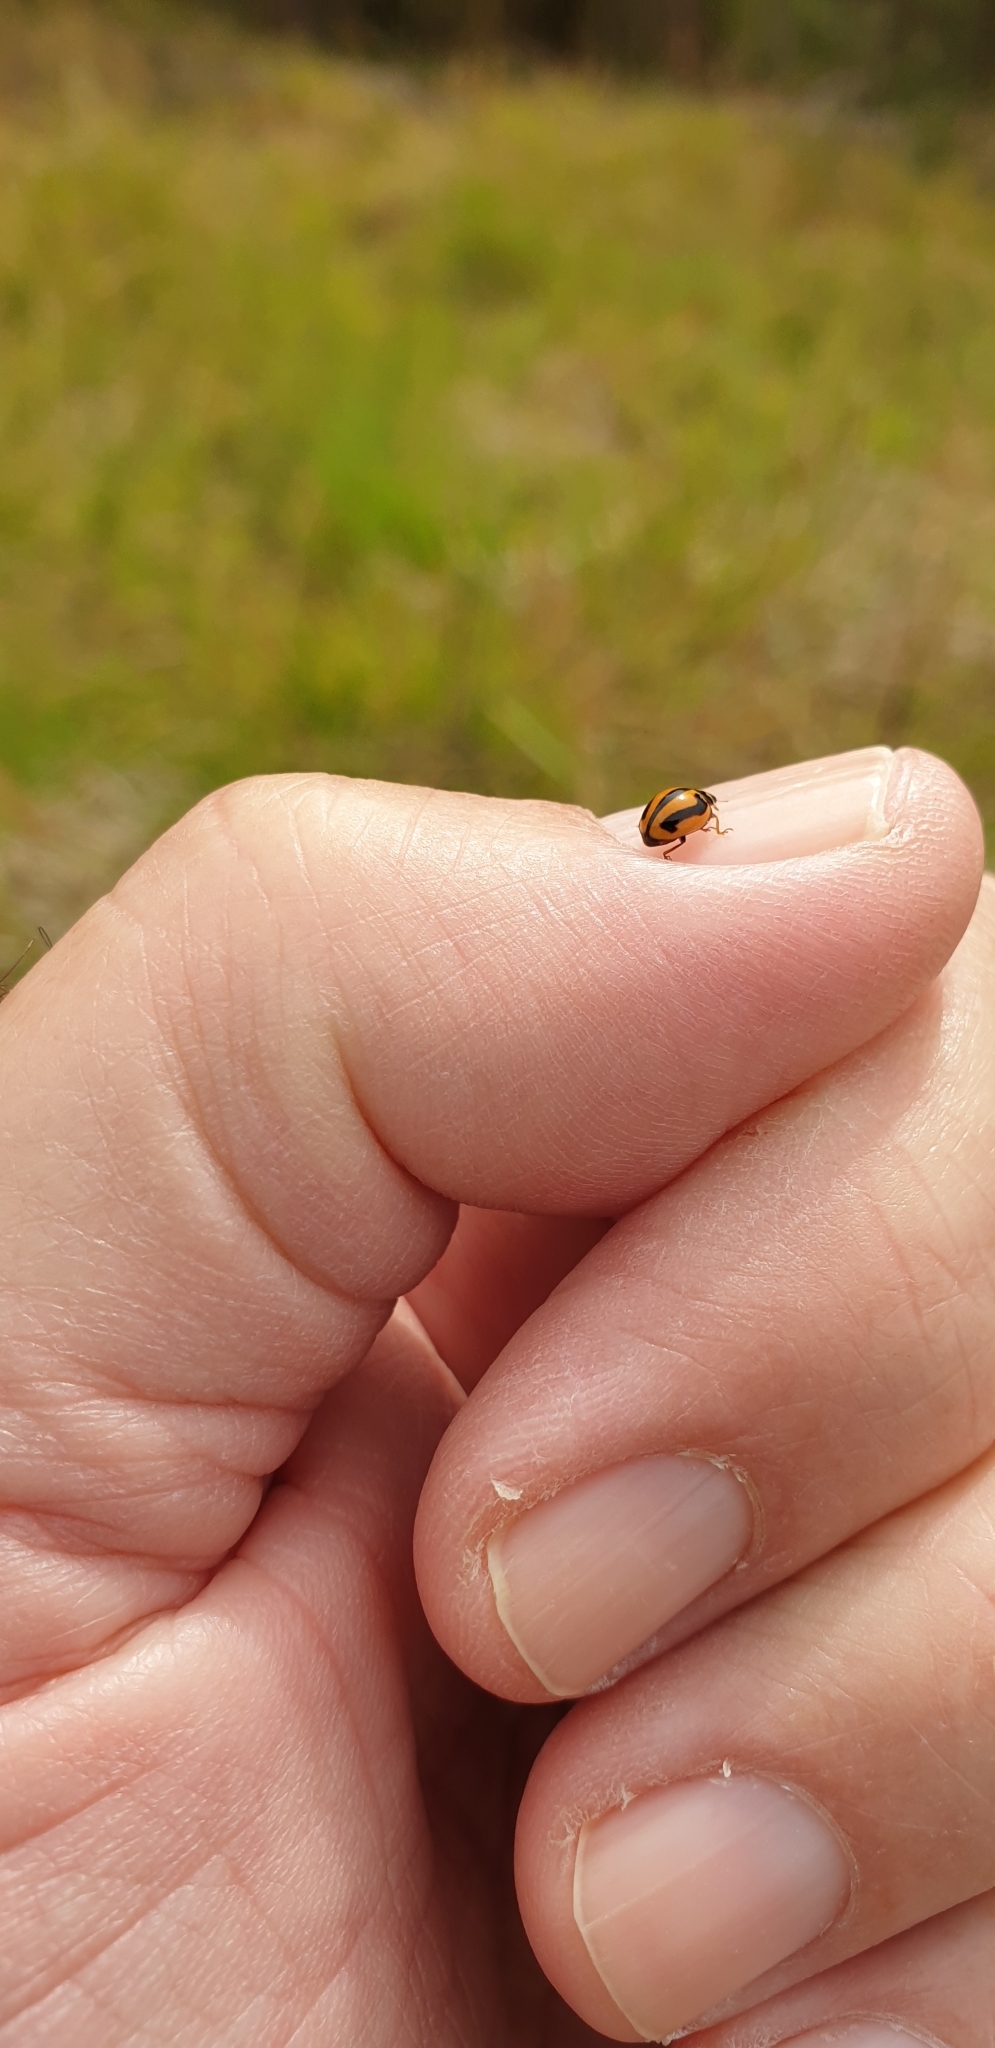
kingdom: Animalia
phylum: Arthropoda
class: Insecta
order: Coleoptera
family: Coccinellidae
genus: Micraspis
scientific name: Micraspis frenata
